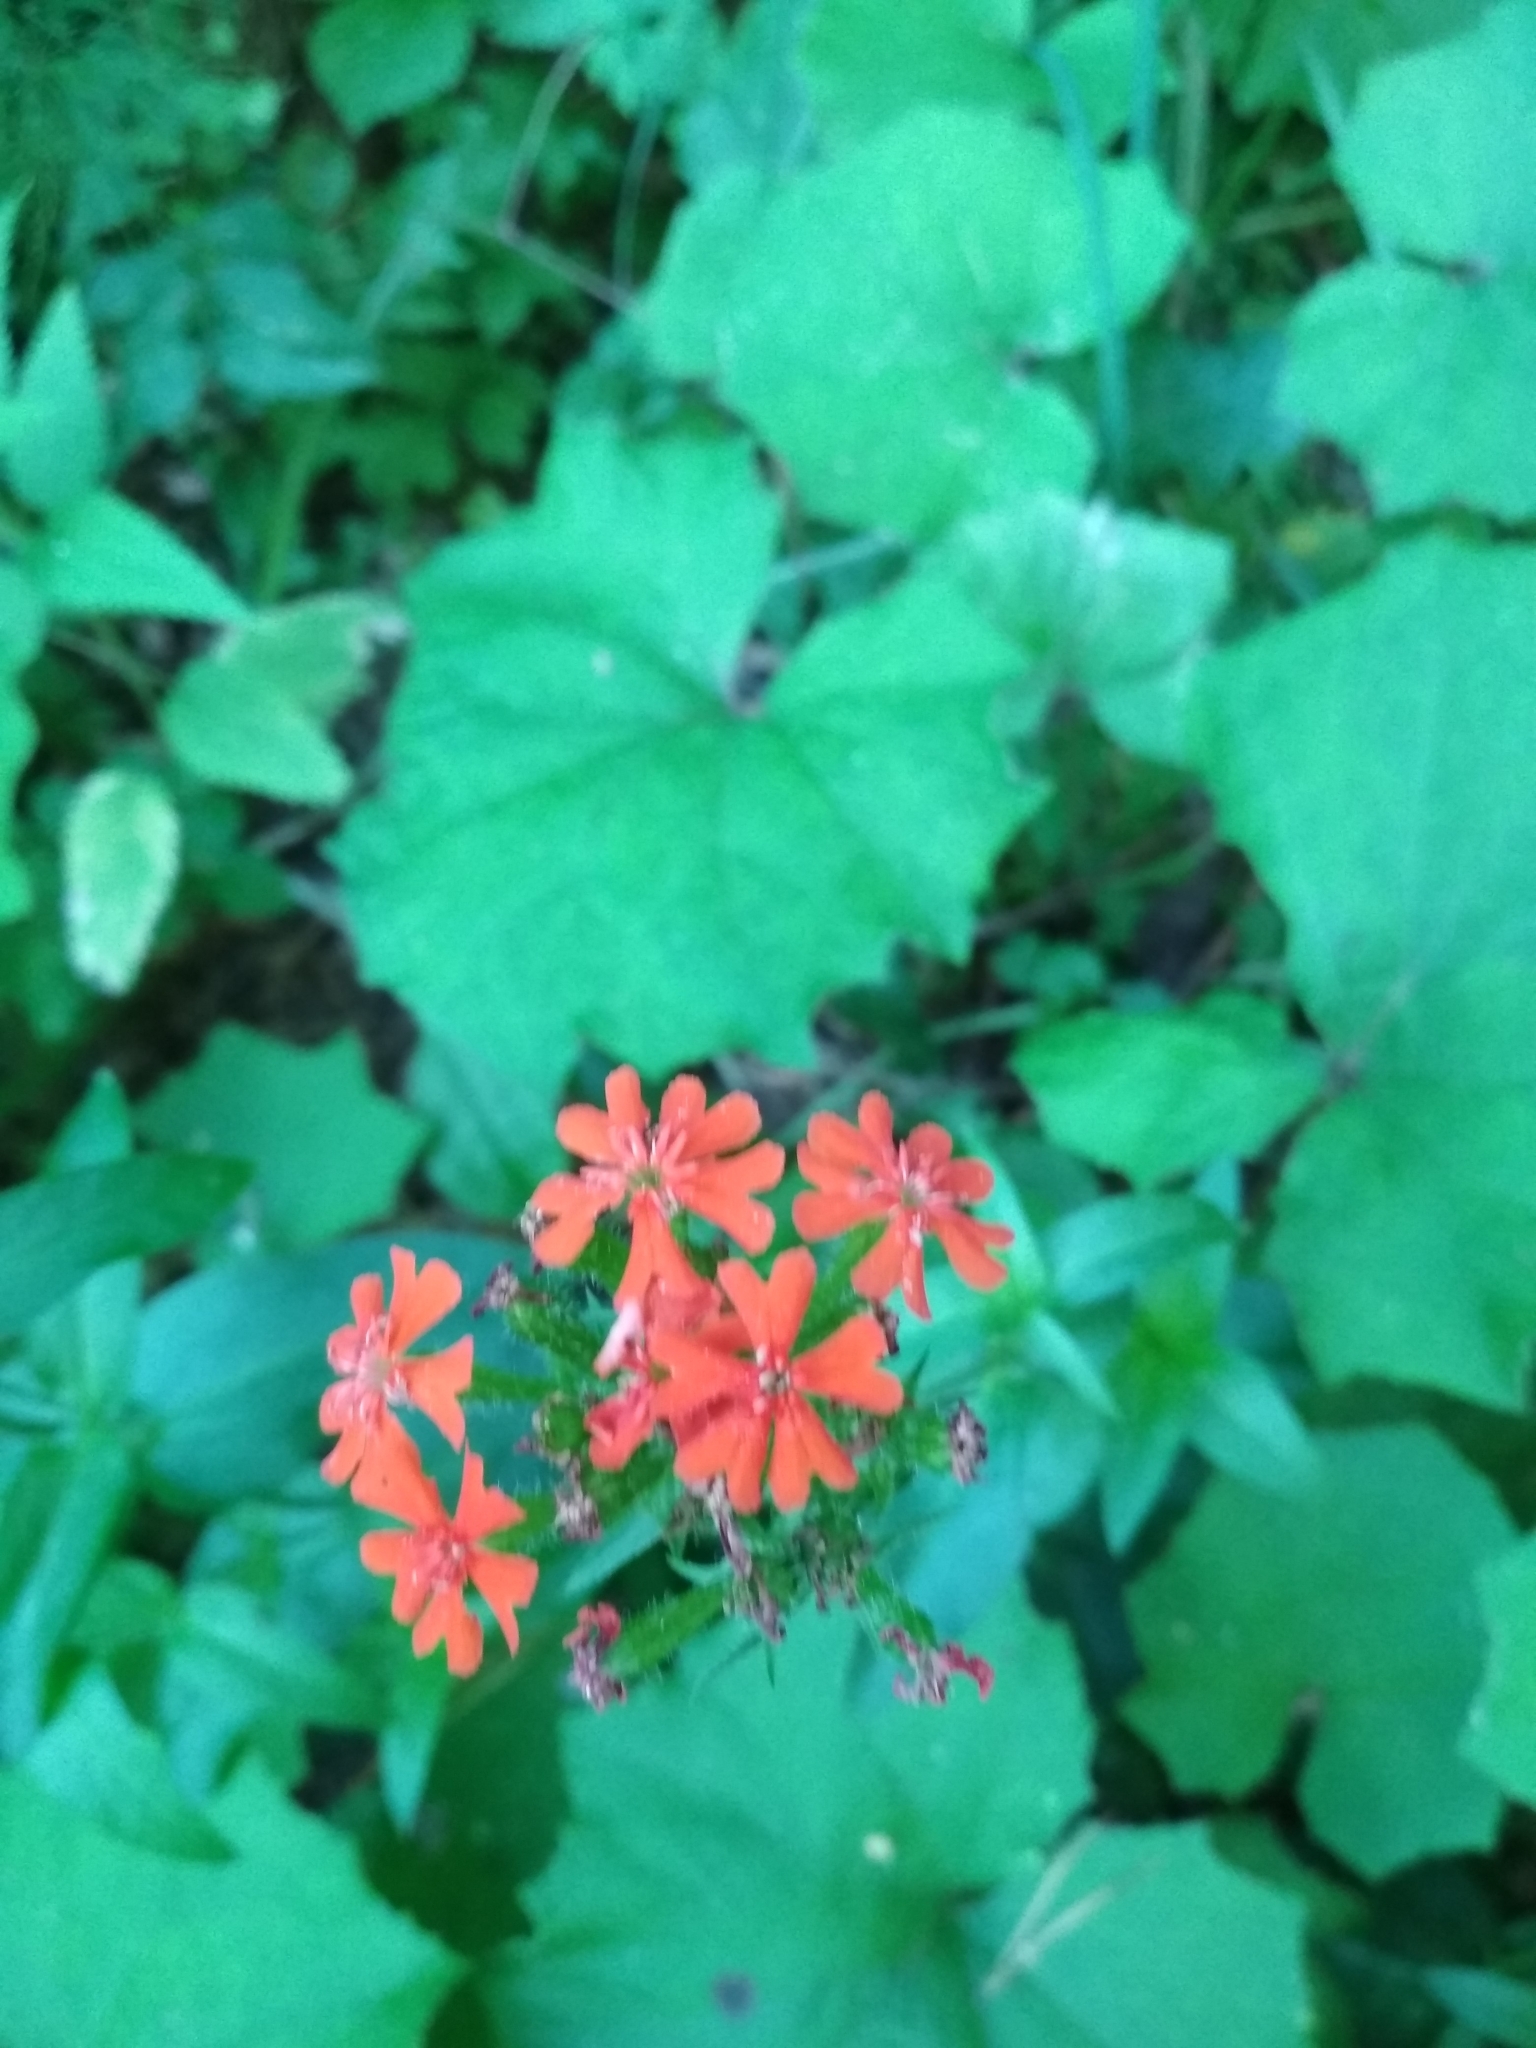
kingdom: Plantae
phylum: Tracheophyta
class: Magnoliopsida
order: Caryophyllales
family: Caryophyllaceae
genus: Silene
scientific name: Silene chalcedonica
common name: Maltese-cross
